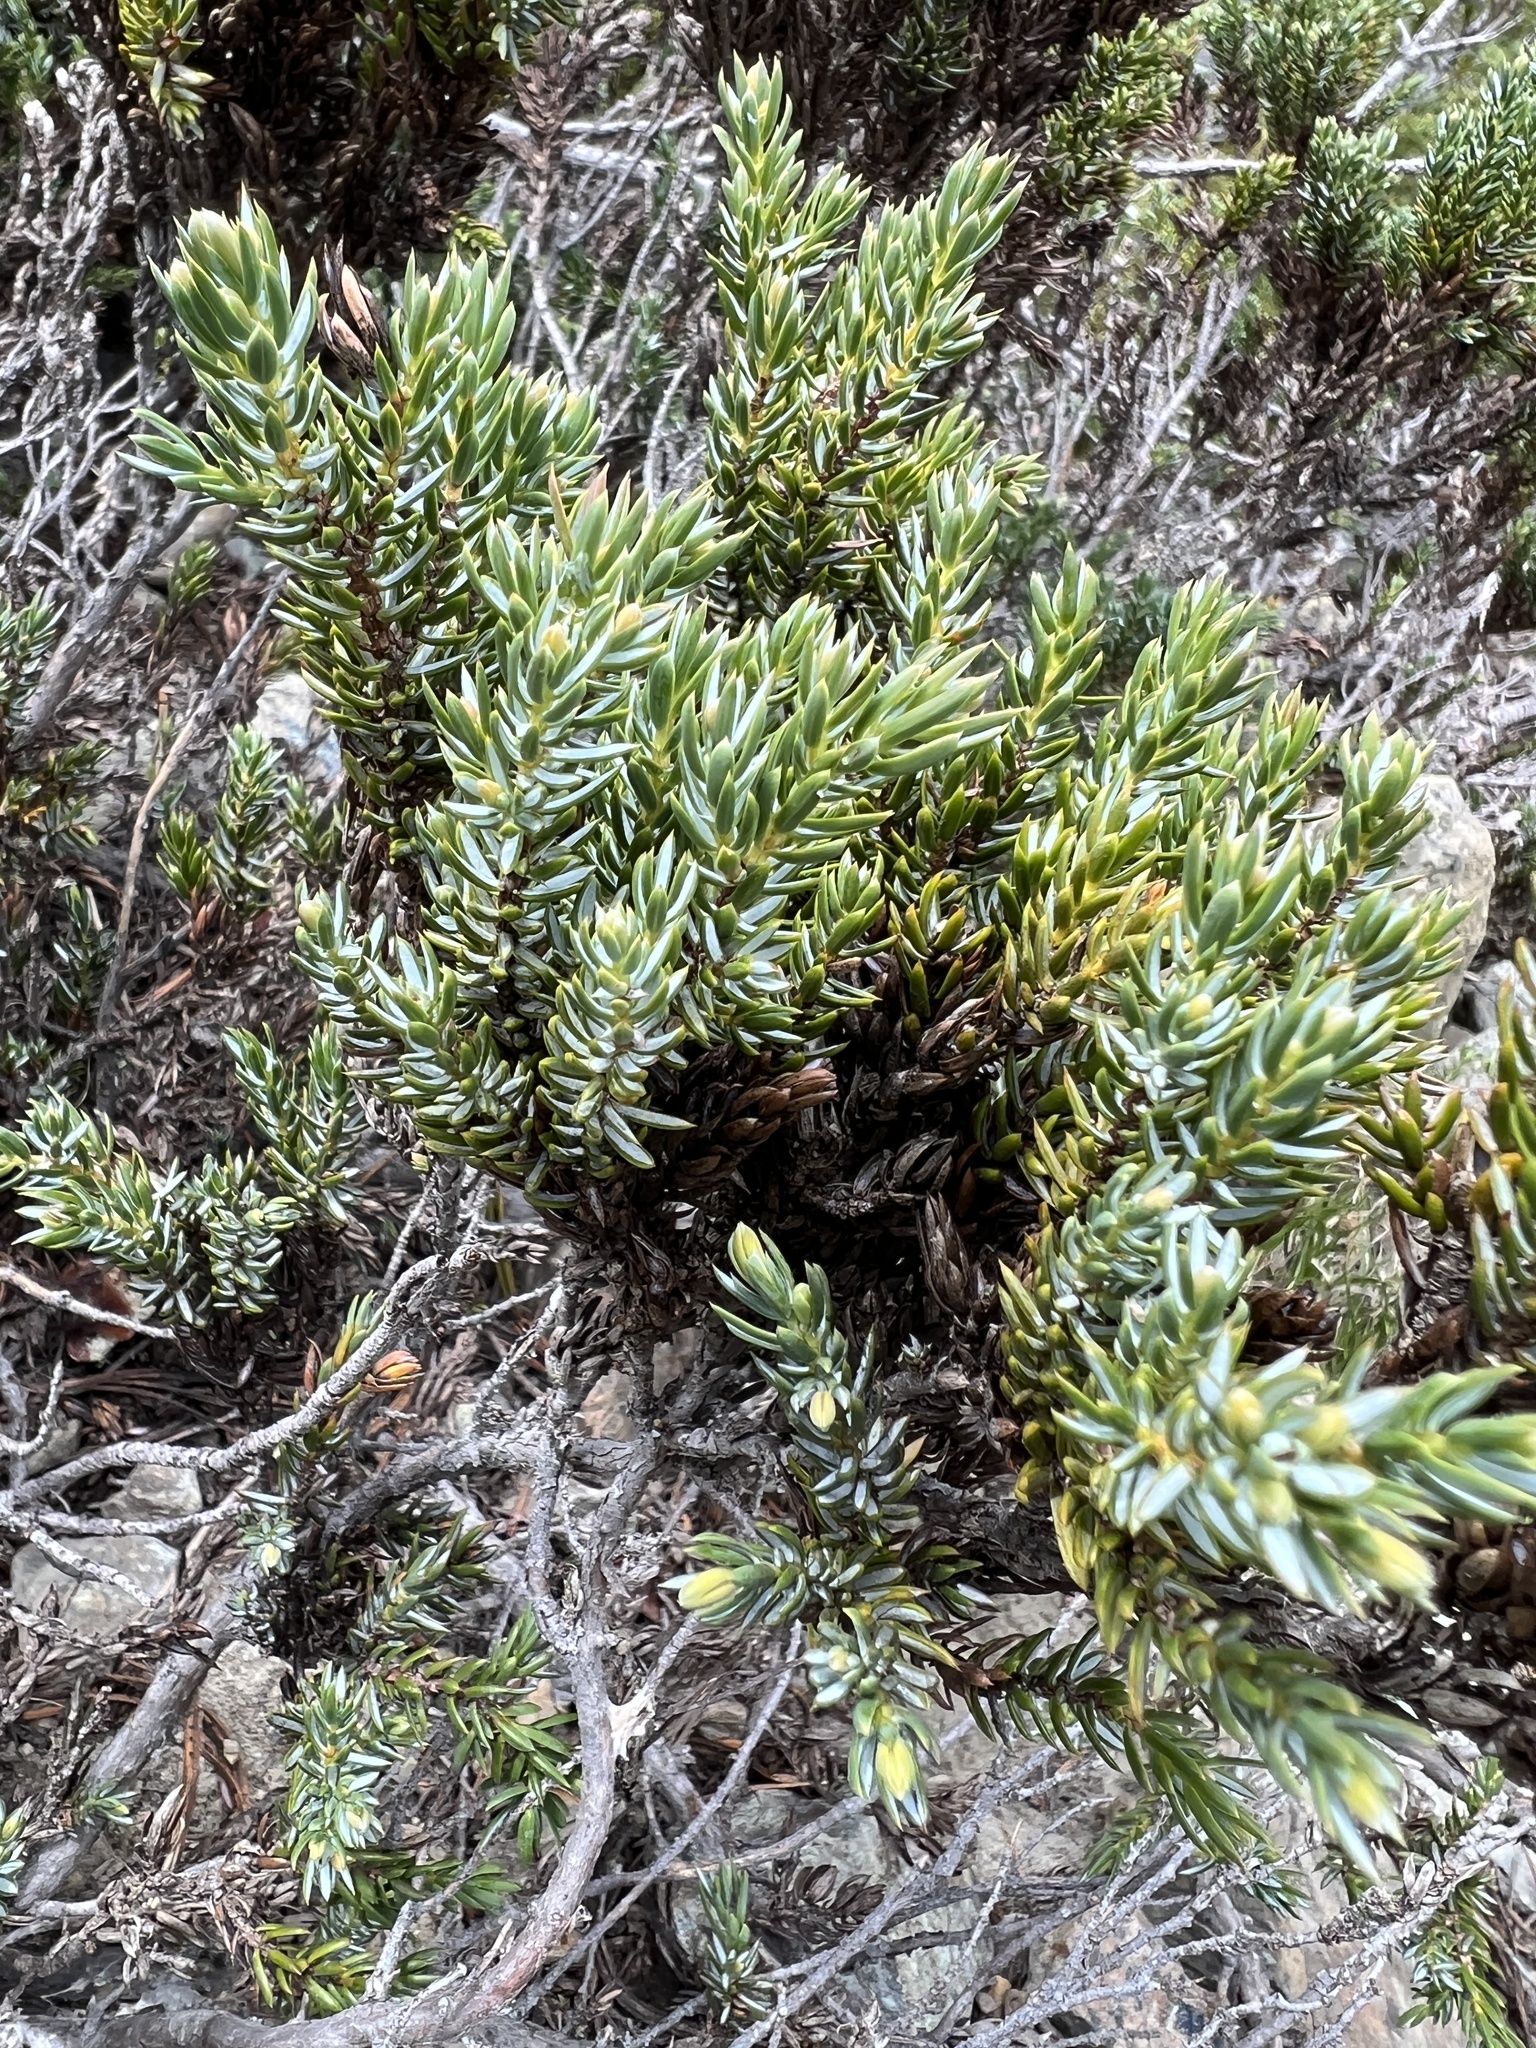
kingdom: Plantae
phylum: Tracheophyta
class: Pinopsida
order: Pinales
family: Cupressaceae
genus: Juniperus
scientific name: Juniperus communis
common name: Common juniper
